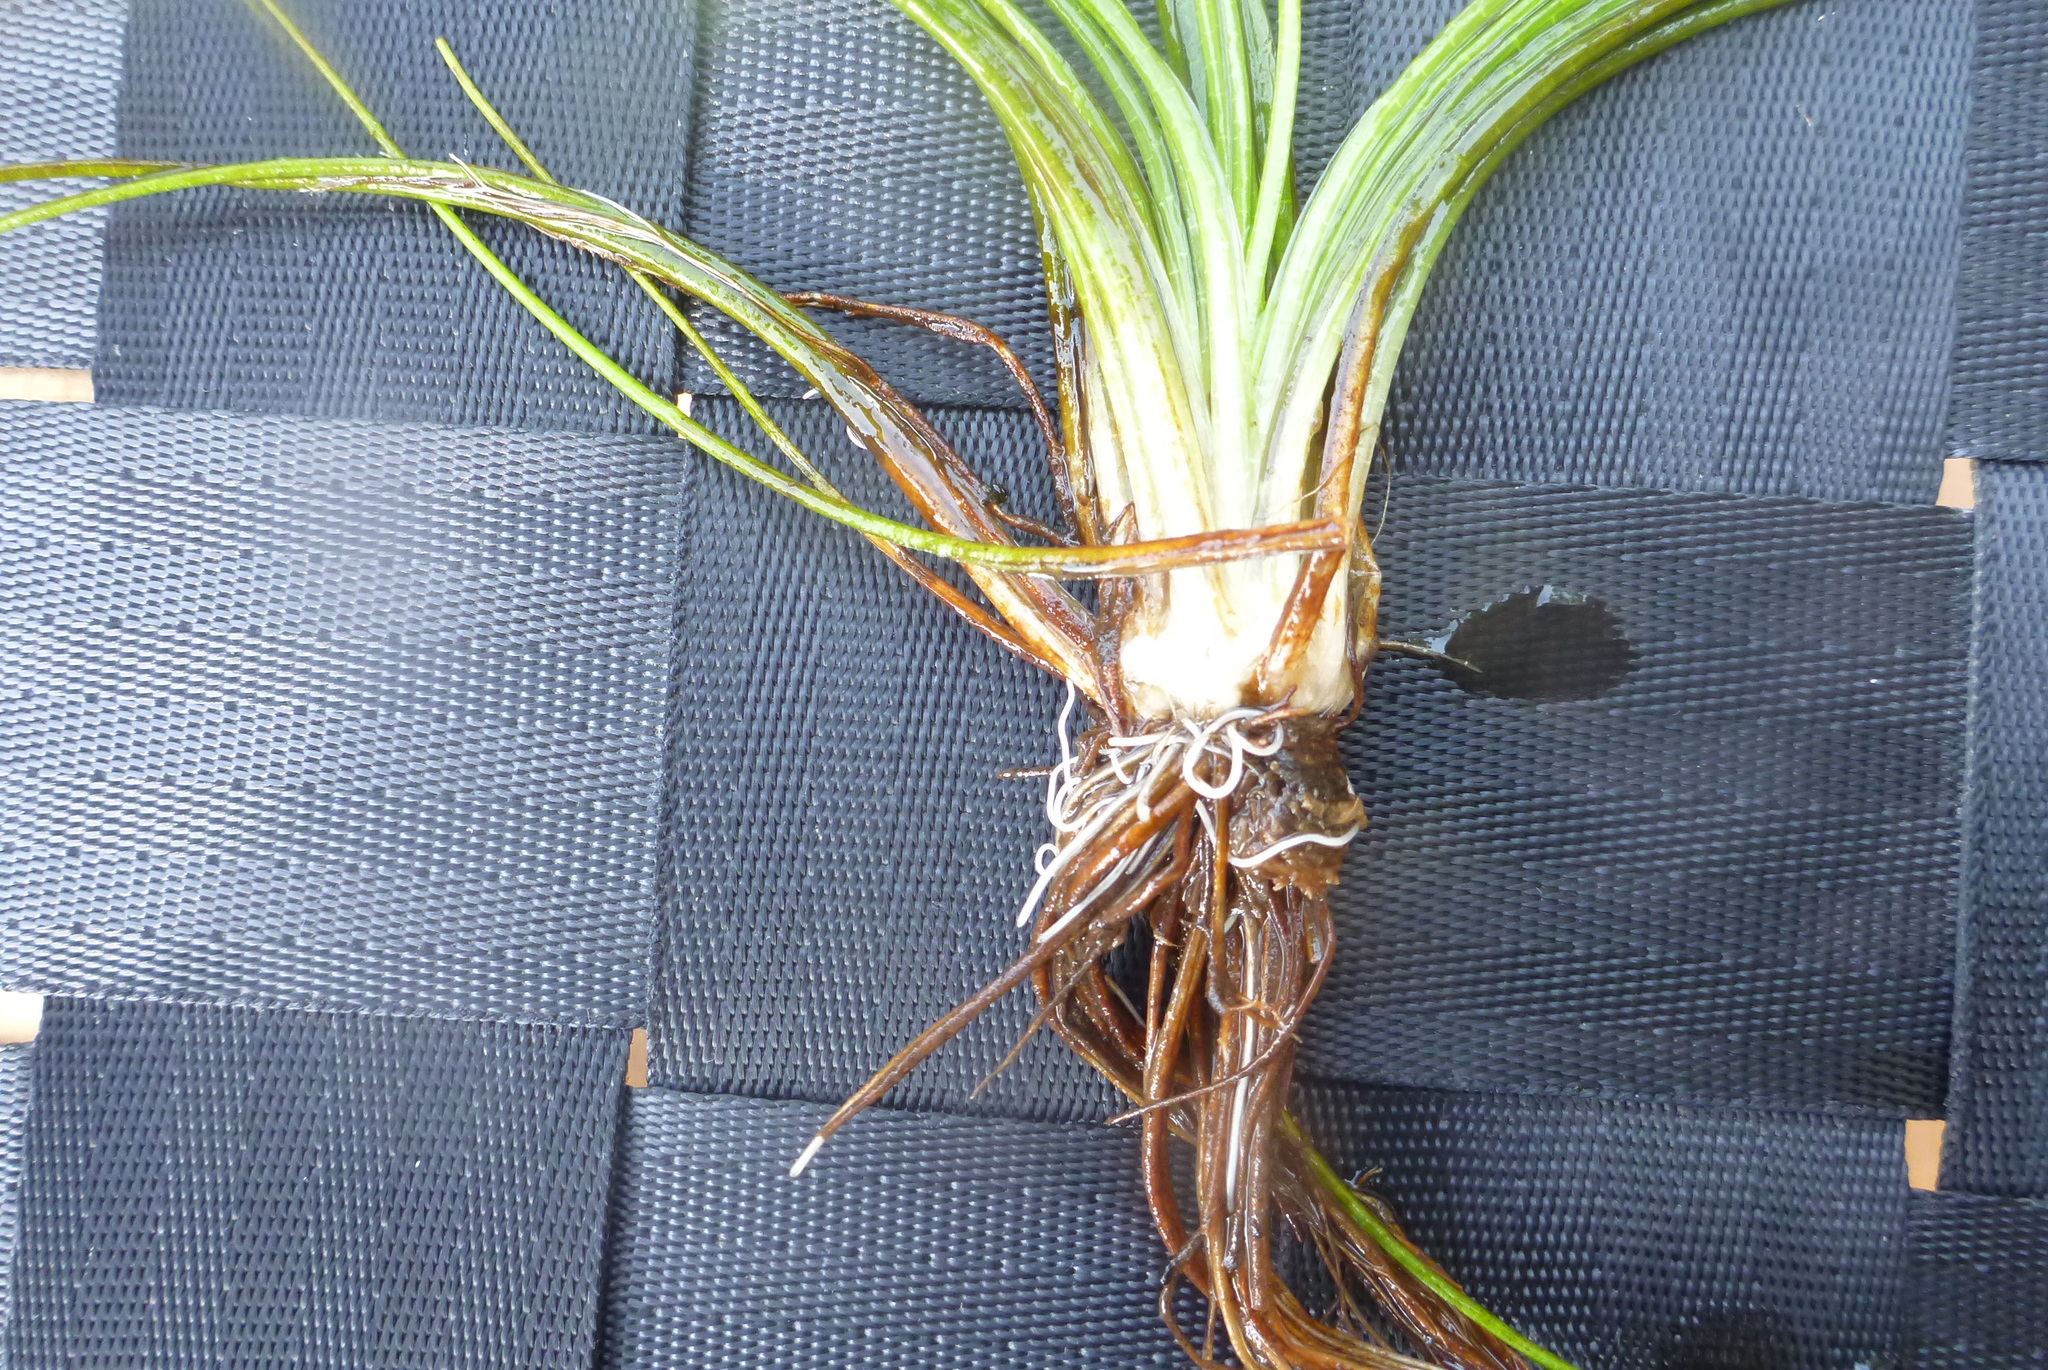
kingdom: Plantae
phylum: Tracheophyta
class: Lycopodiopsida
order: Isoetales
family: Isoetaceae
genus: Isoetes
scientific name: Isoetes echinospora
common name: Spring quillwort
